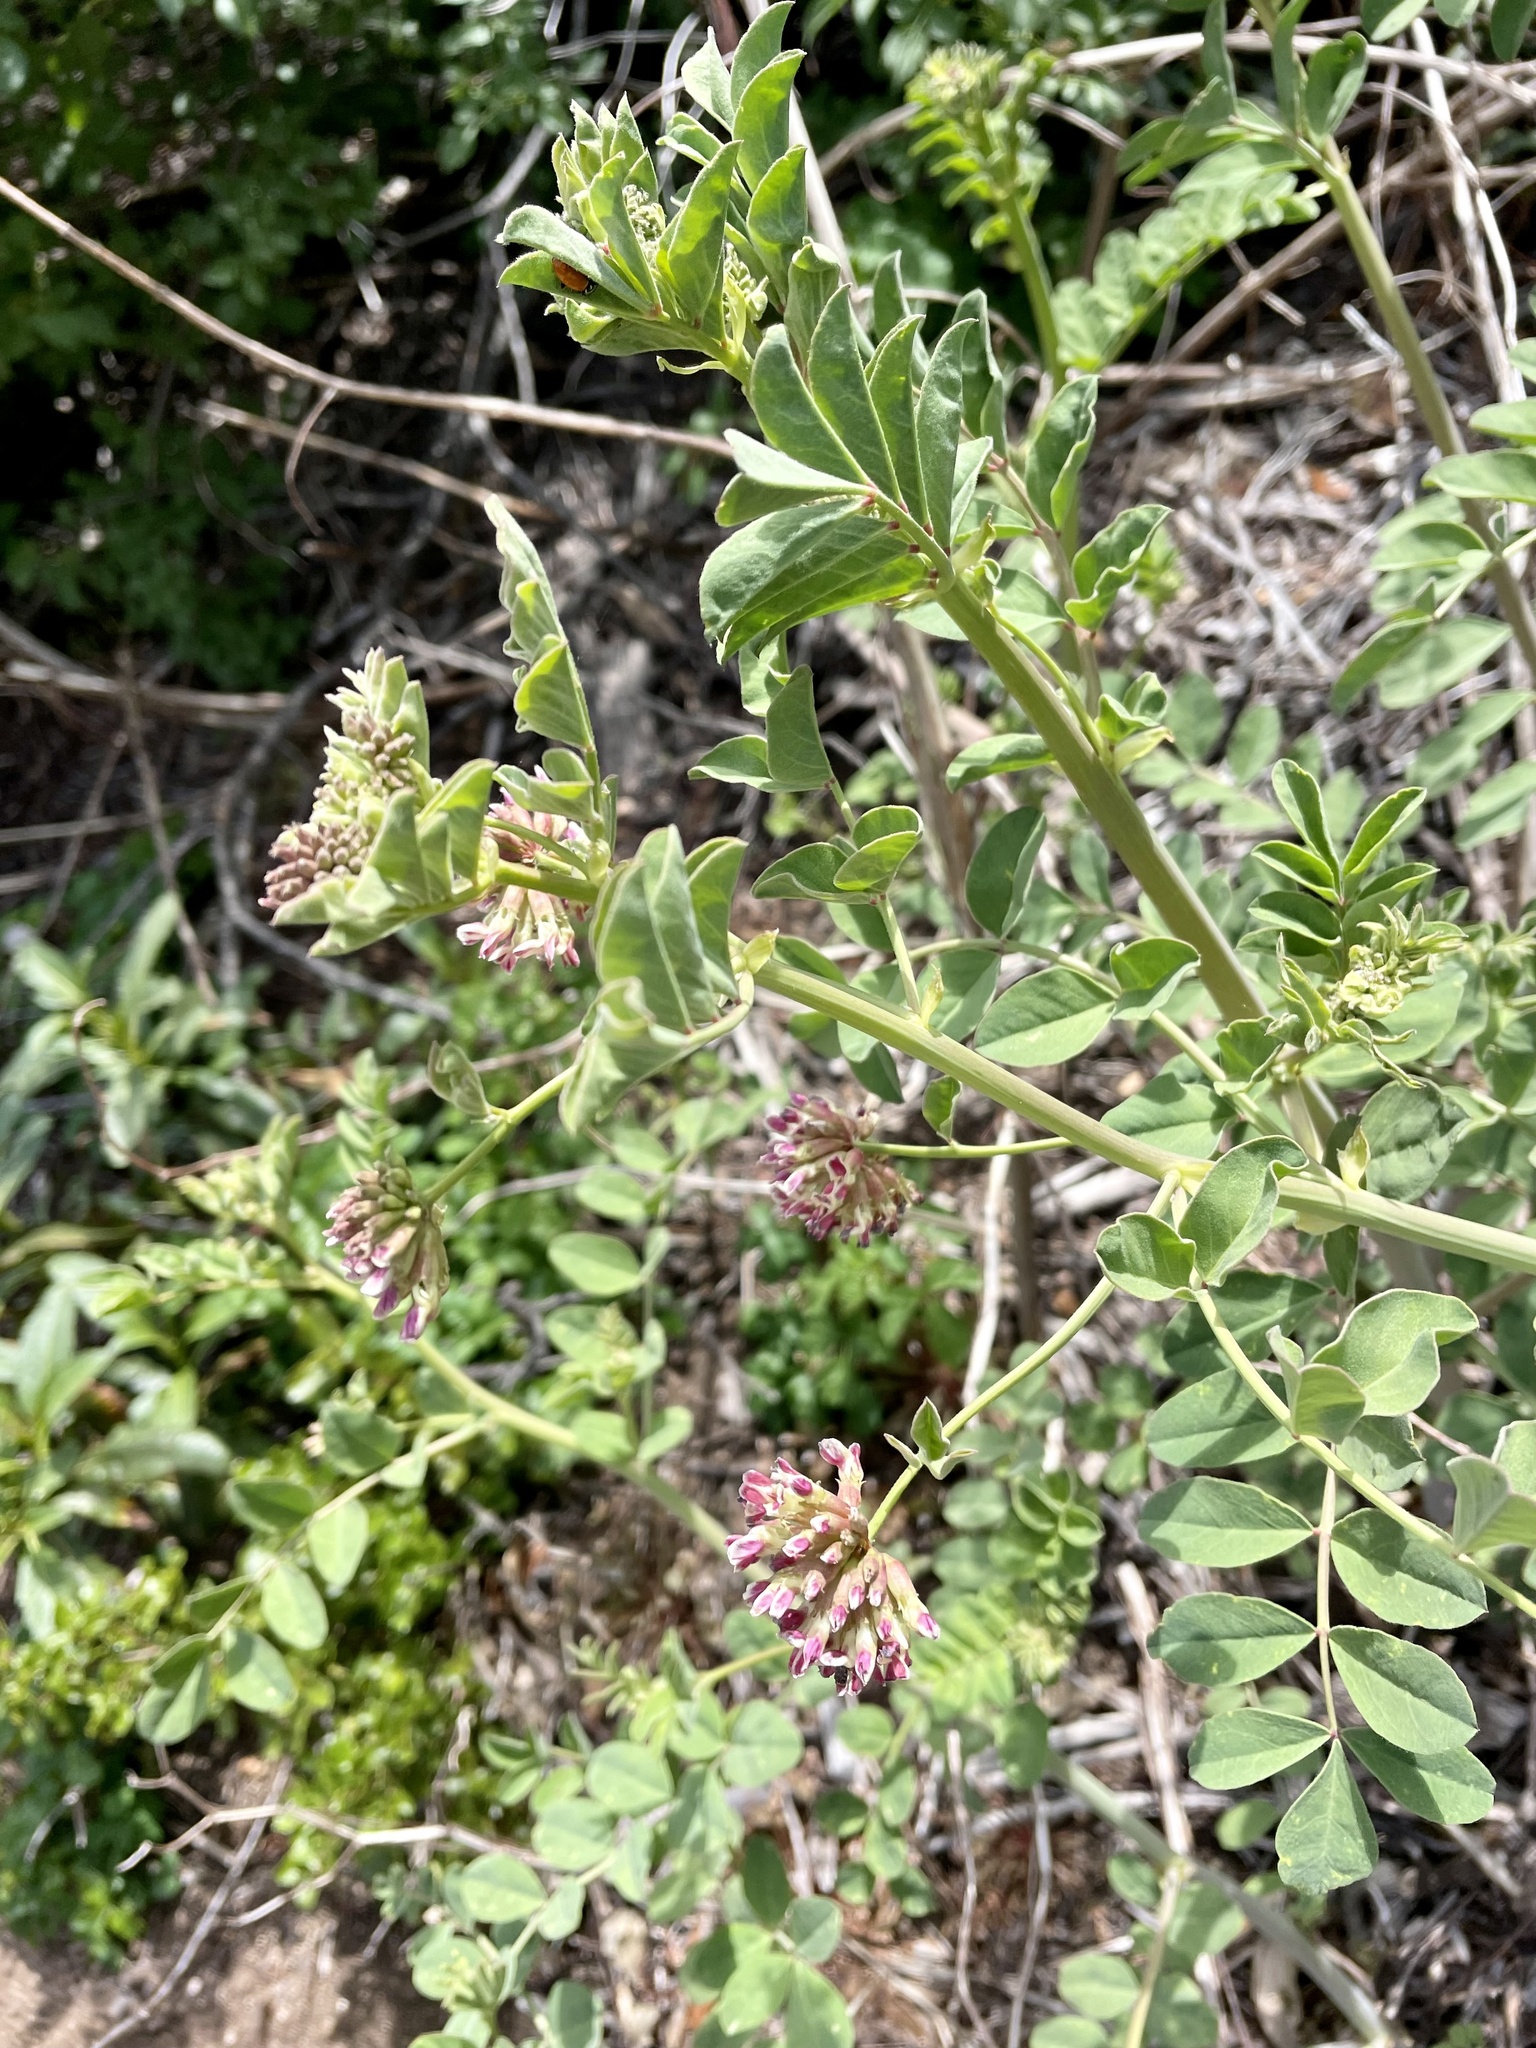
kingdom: Plantae
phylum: Tracheophyta
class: Magnoliopsida
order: Fabales
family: Fabaceae
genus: Hosackia
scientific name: Hosackia crassifolia
